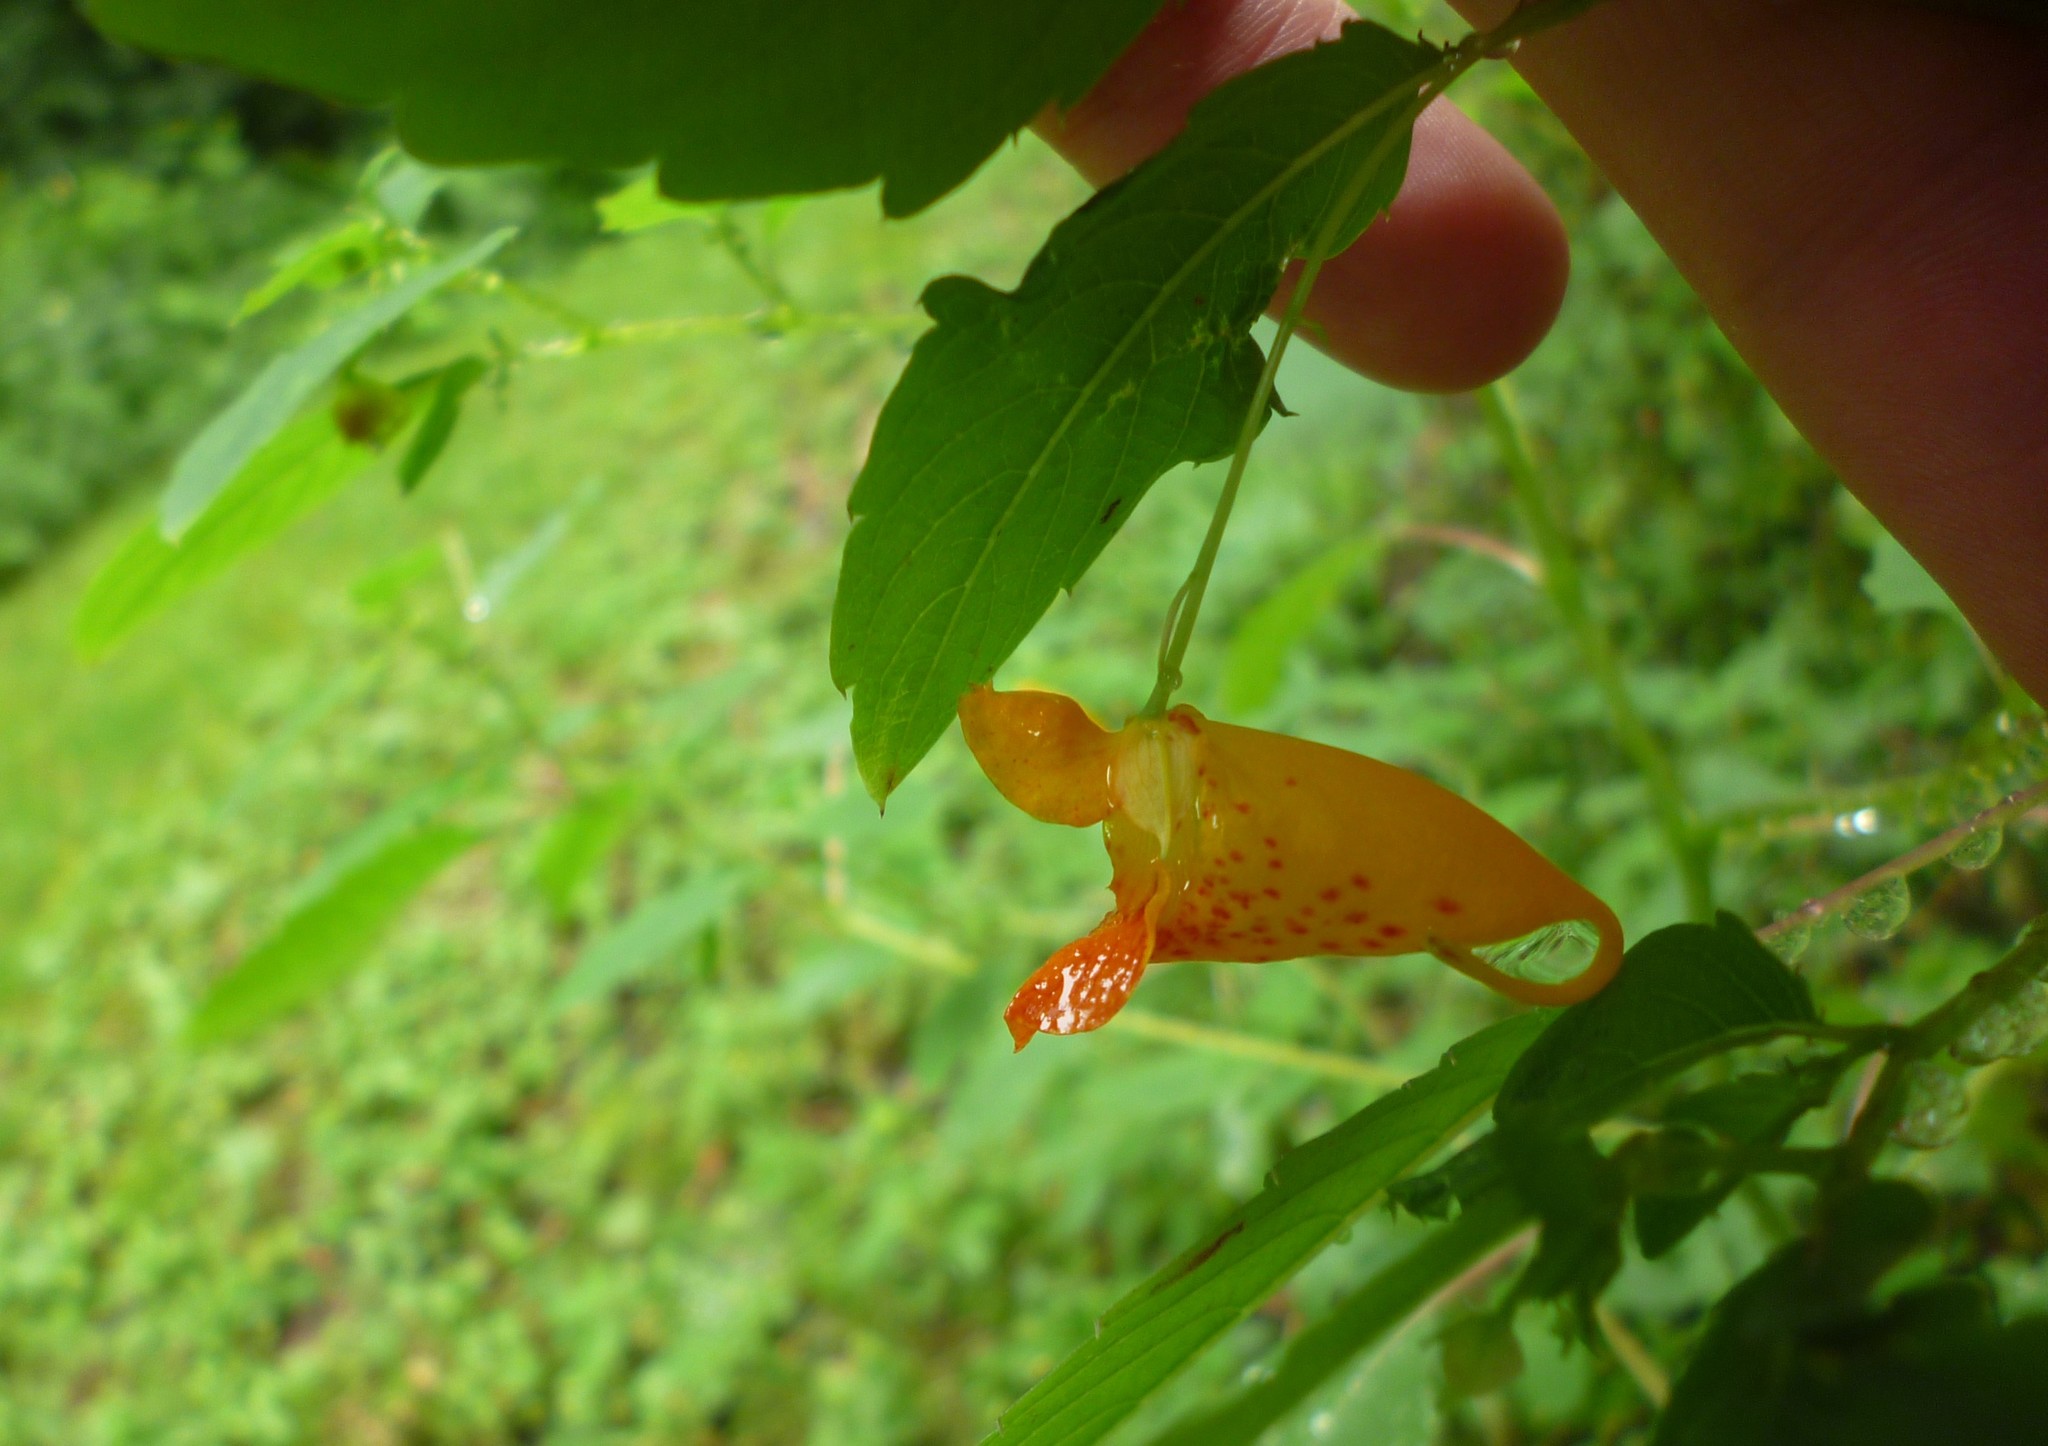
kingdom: Plantae
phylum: Tracheophyta
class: Magnoliopsida
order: Ericales
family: Balsaminaceae
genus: Impatiens
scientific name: Impatiens capensis
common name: Orange balsam
